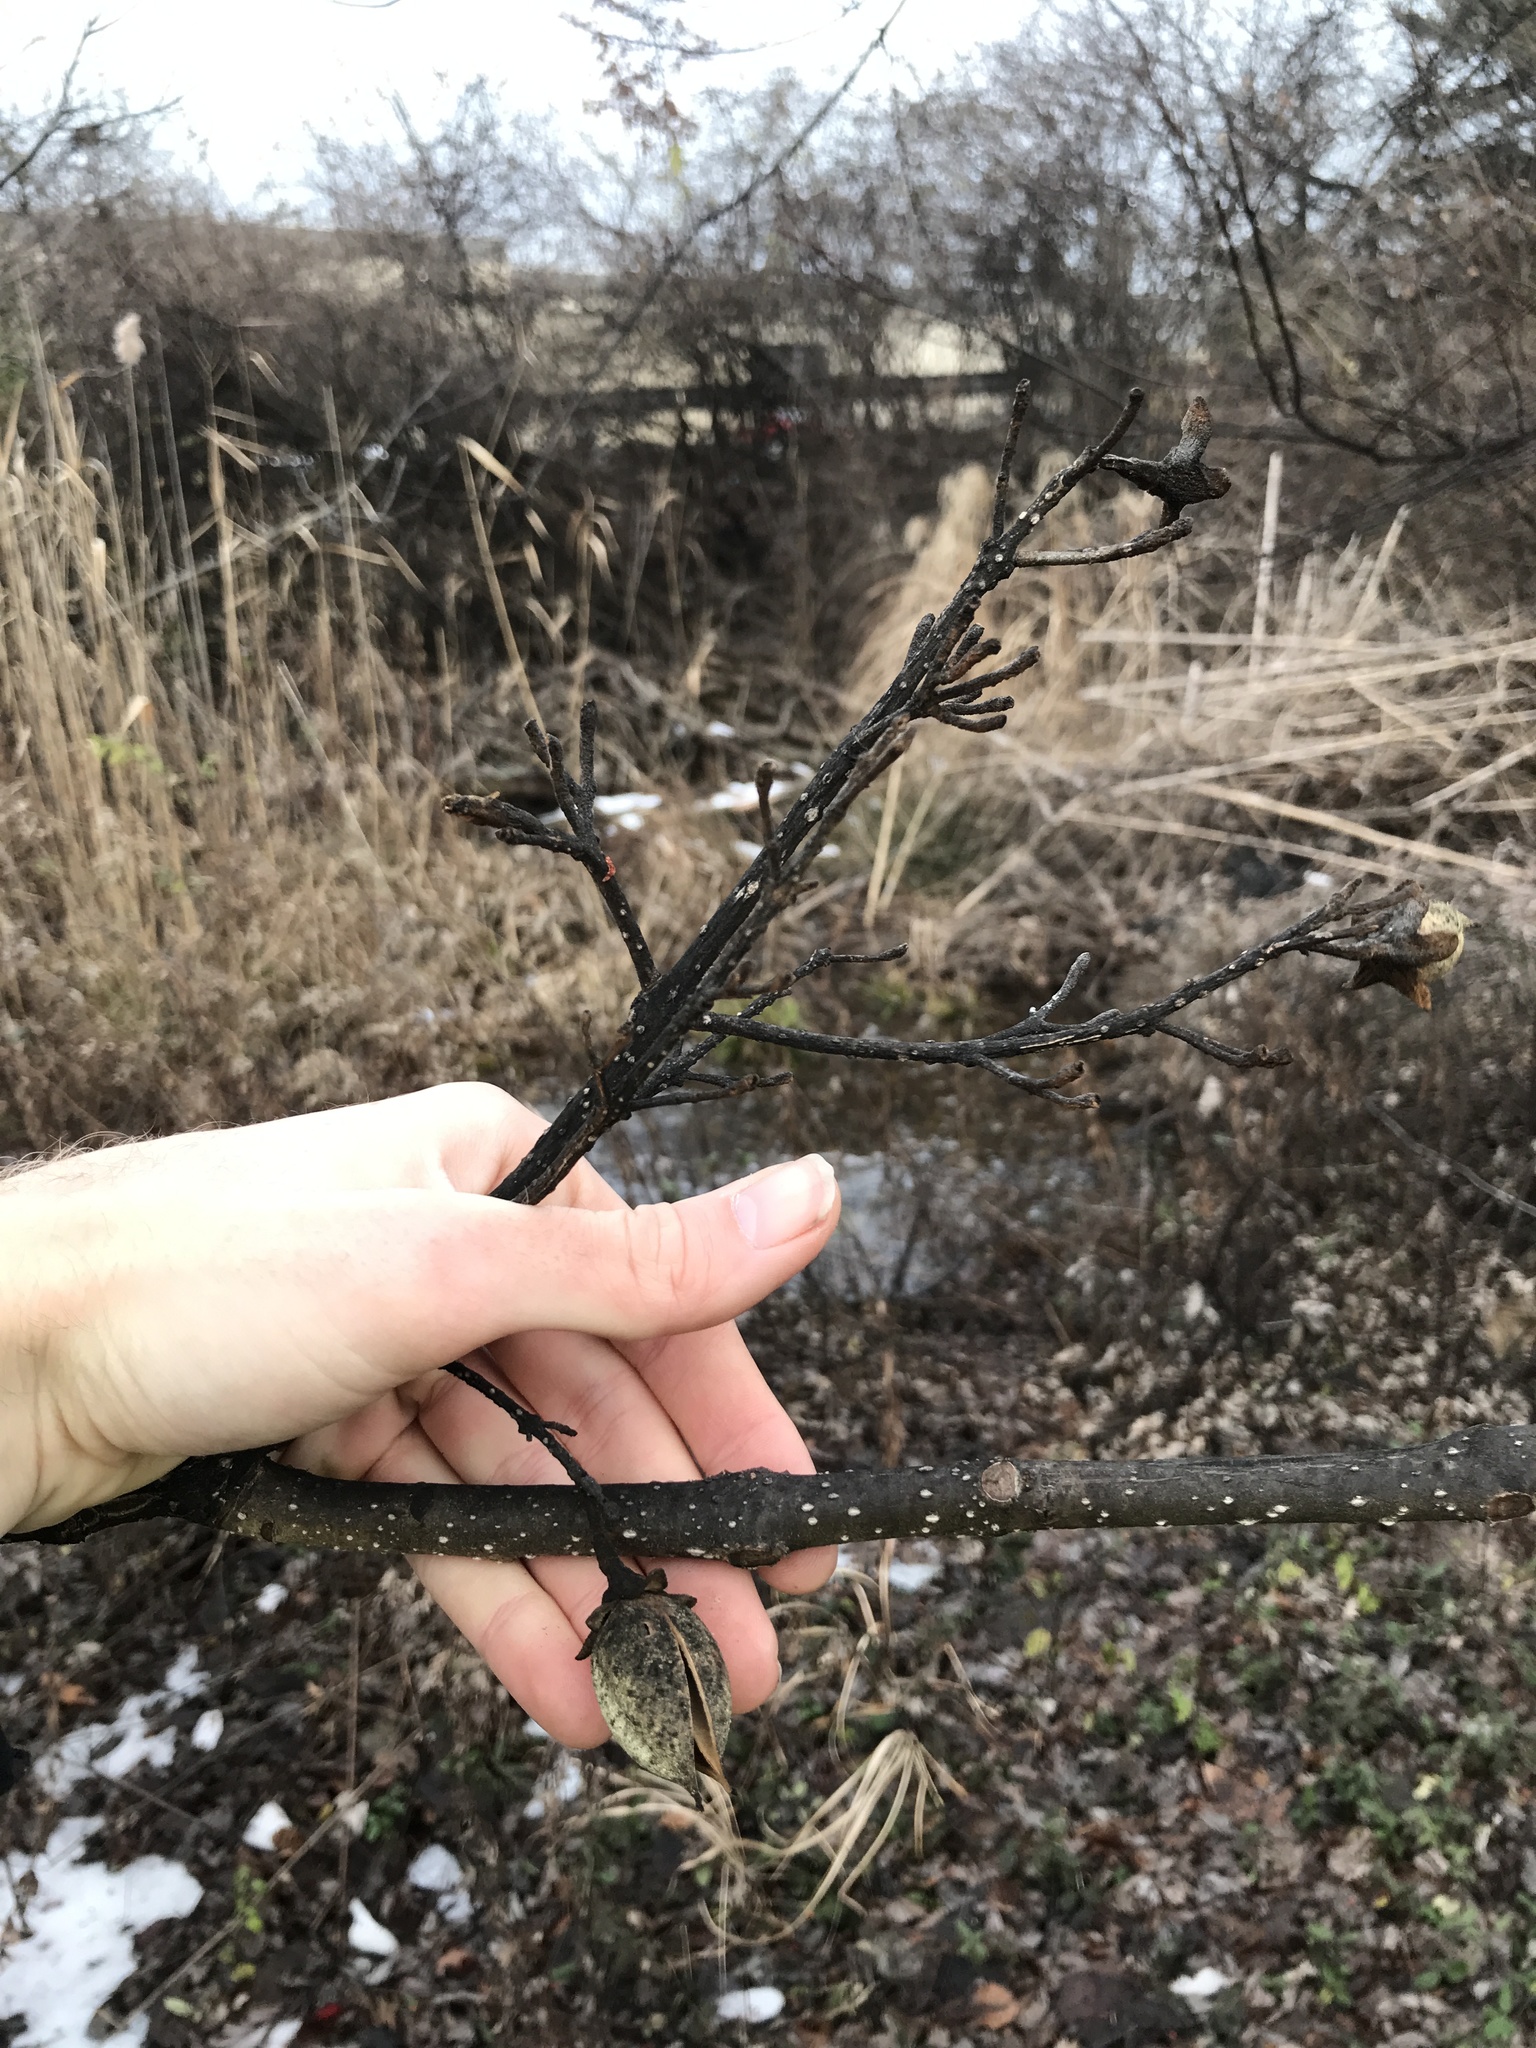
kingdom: Plantae
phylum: Tracheophyta
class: Magnoliopsida
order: Lamiales
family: Paulowniaceae
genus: Paulownia
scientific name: Paulownia tomentosa
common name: Foxglove-tree
